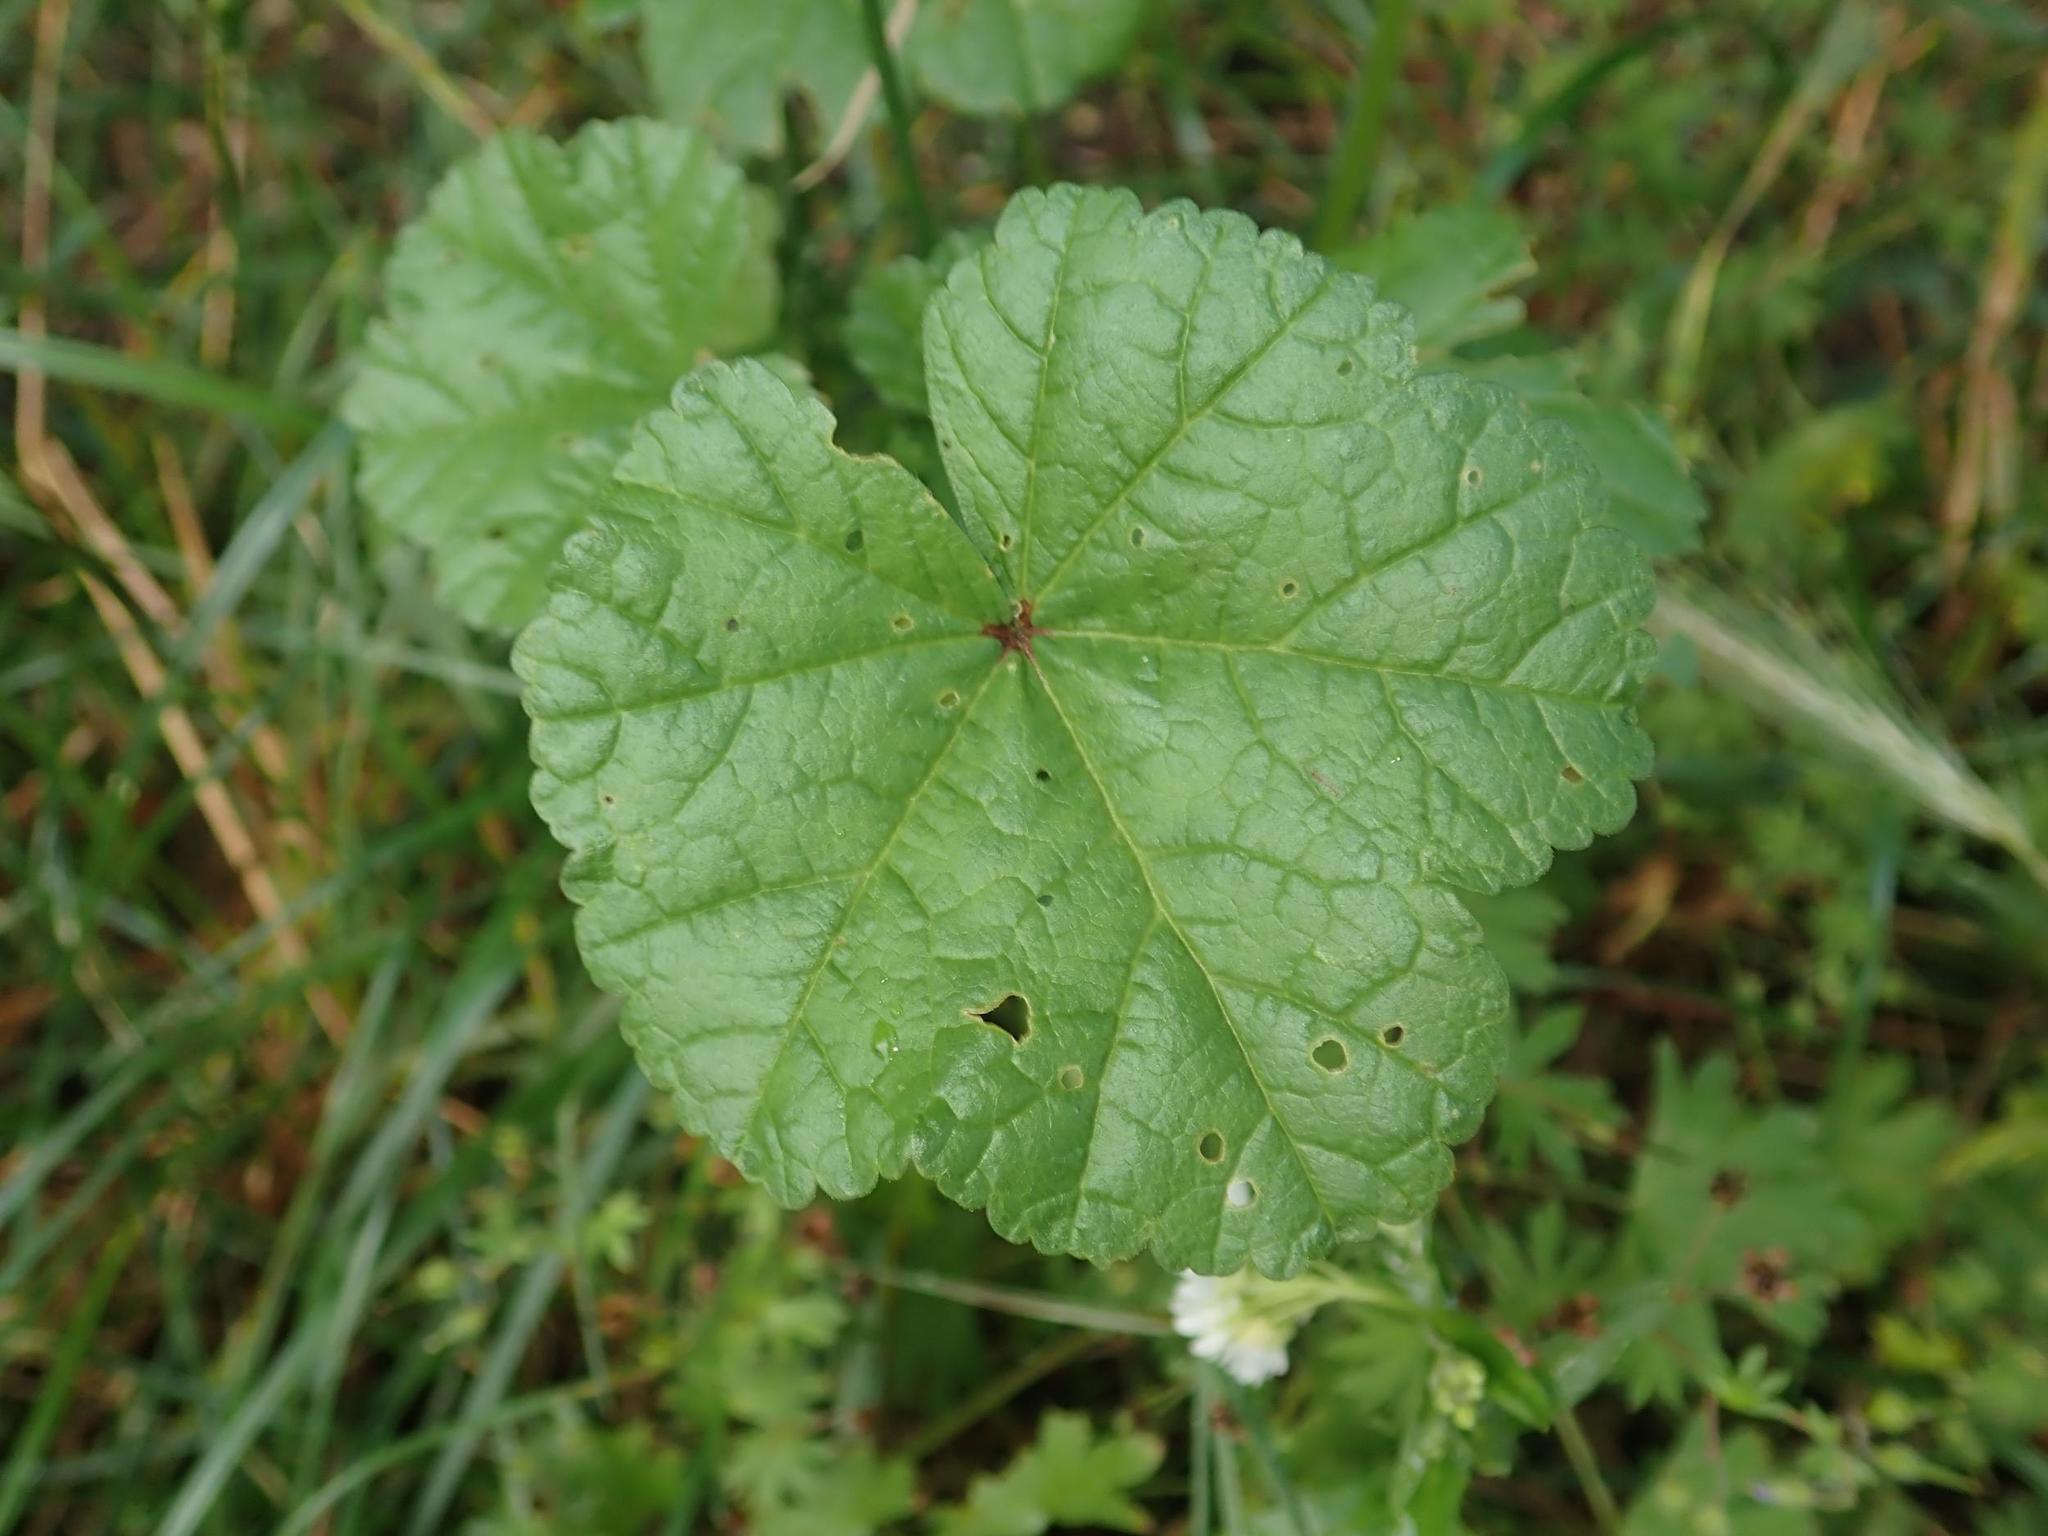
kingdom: Plantae
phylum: Tracheophyta
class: Magnoliopsida
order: Malvales
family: Malvaceae
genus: Malva
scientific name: Malva sylvestris
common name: Common mallow
